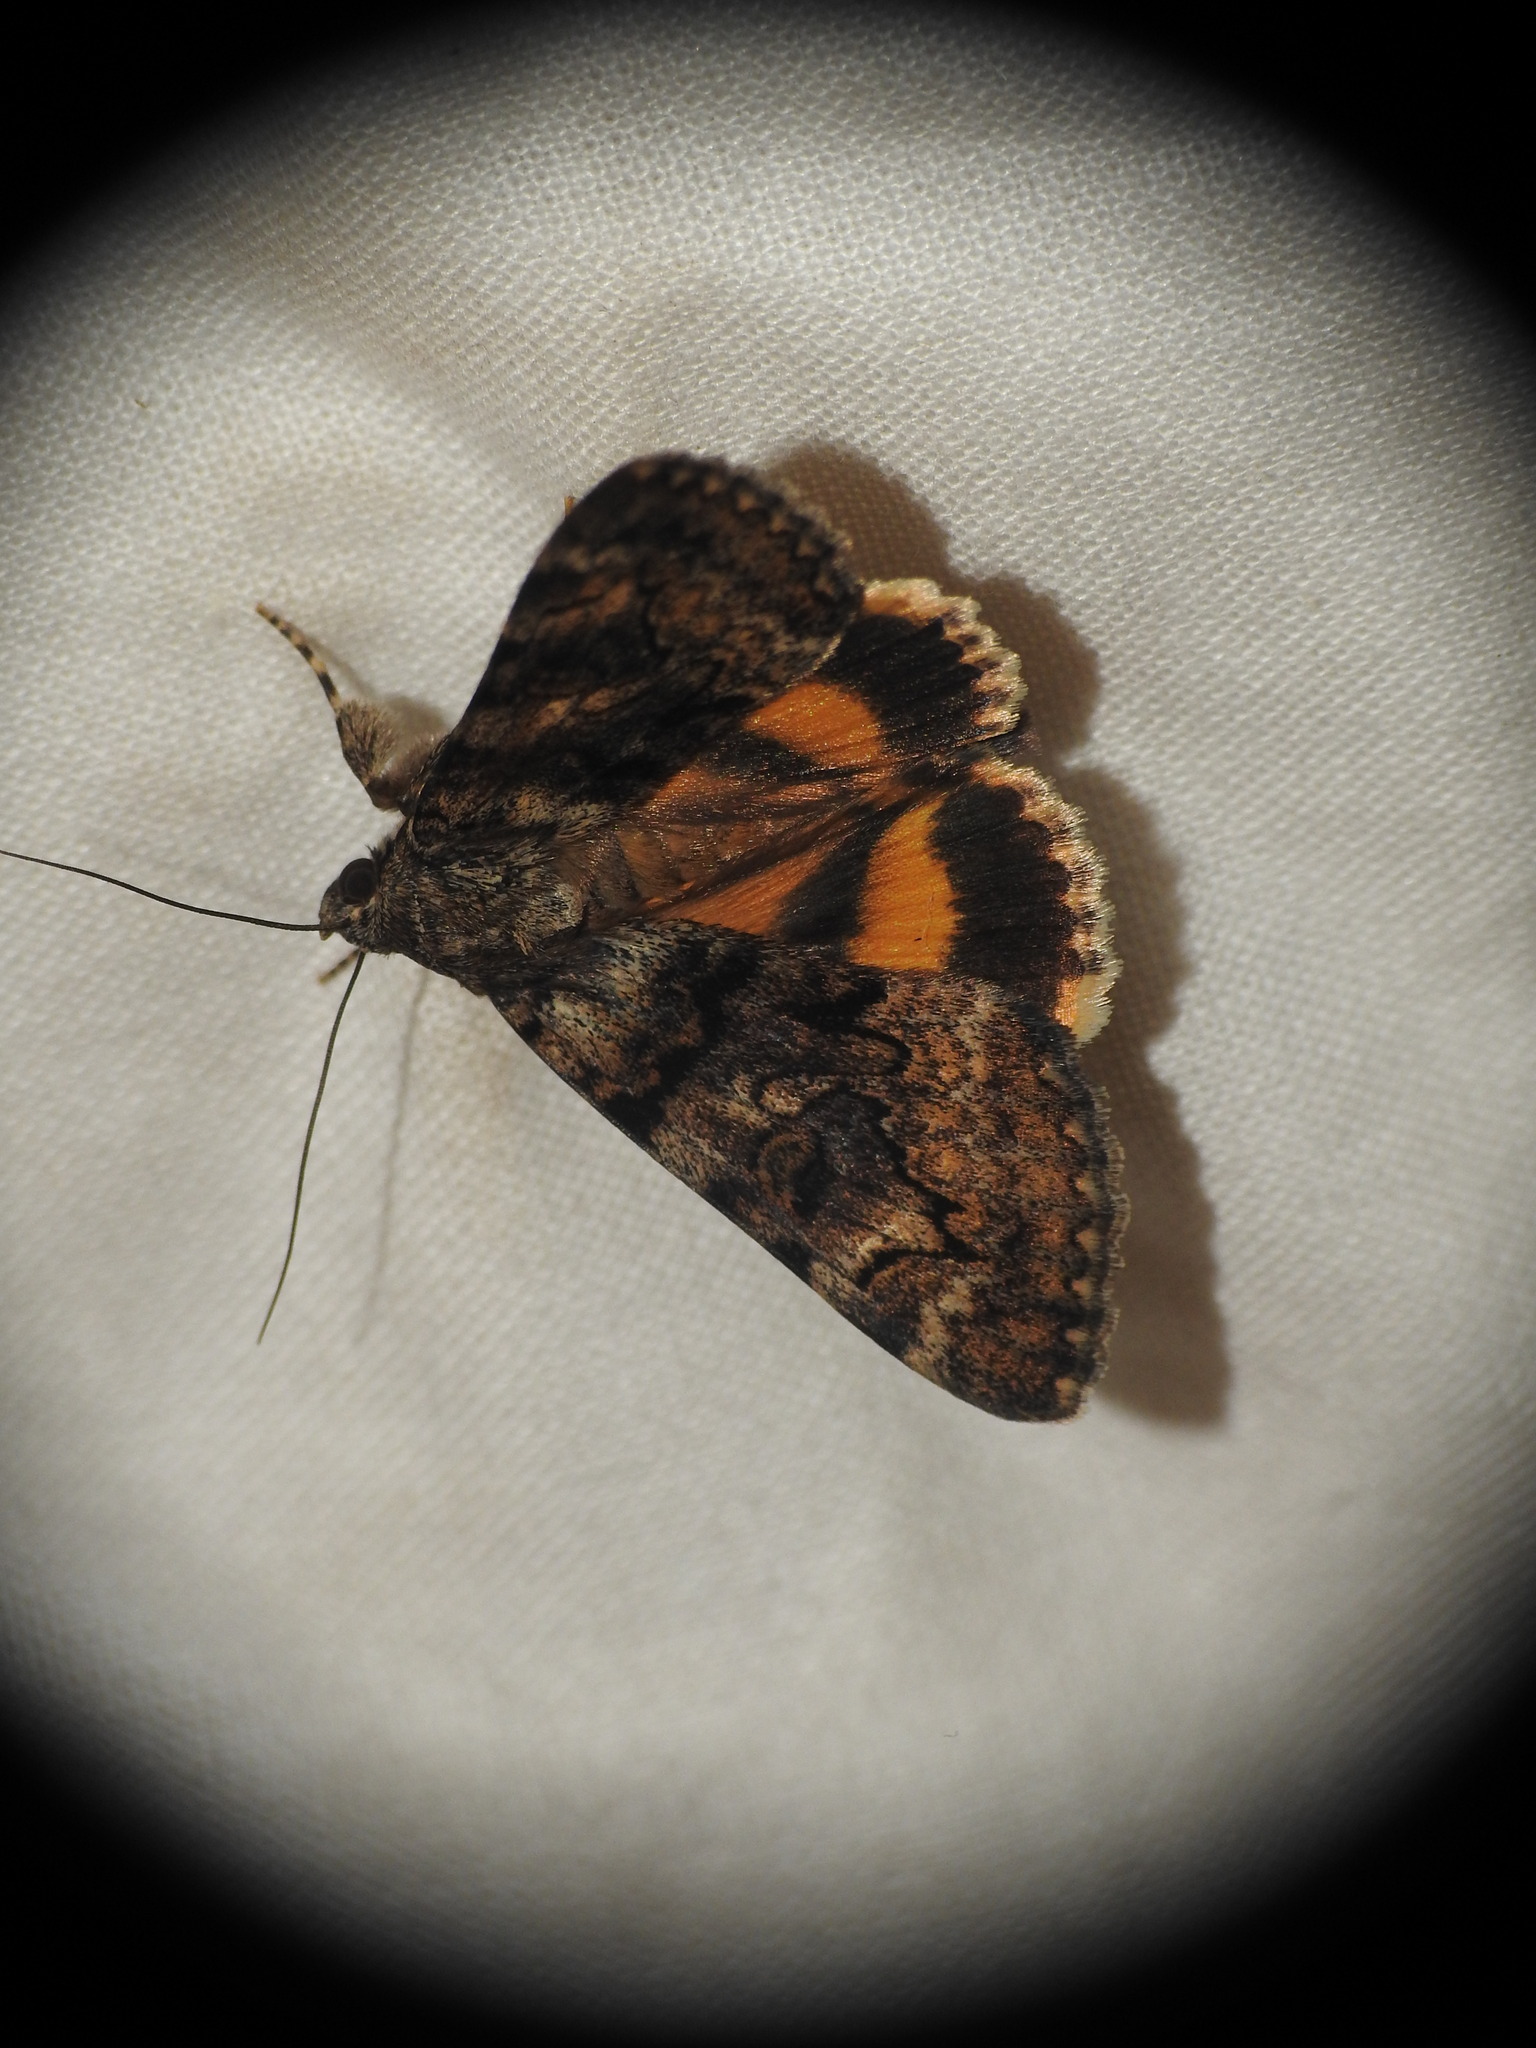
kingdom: Animalia
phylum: Arthropoda
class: Insecta
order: Lepidoptera
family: Erebidae
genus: Catocala
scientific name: Catocala nymphagoga
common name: Oak yellow underwing
